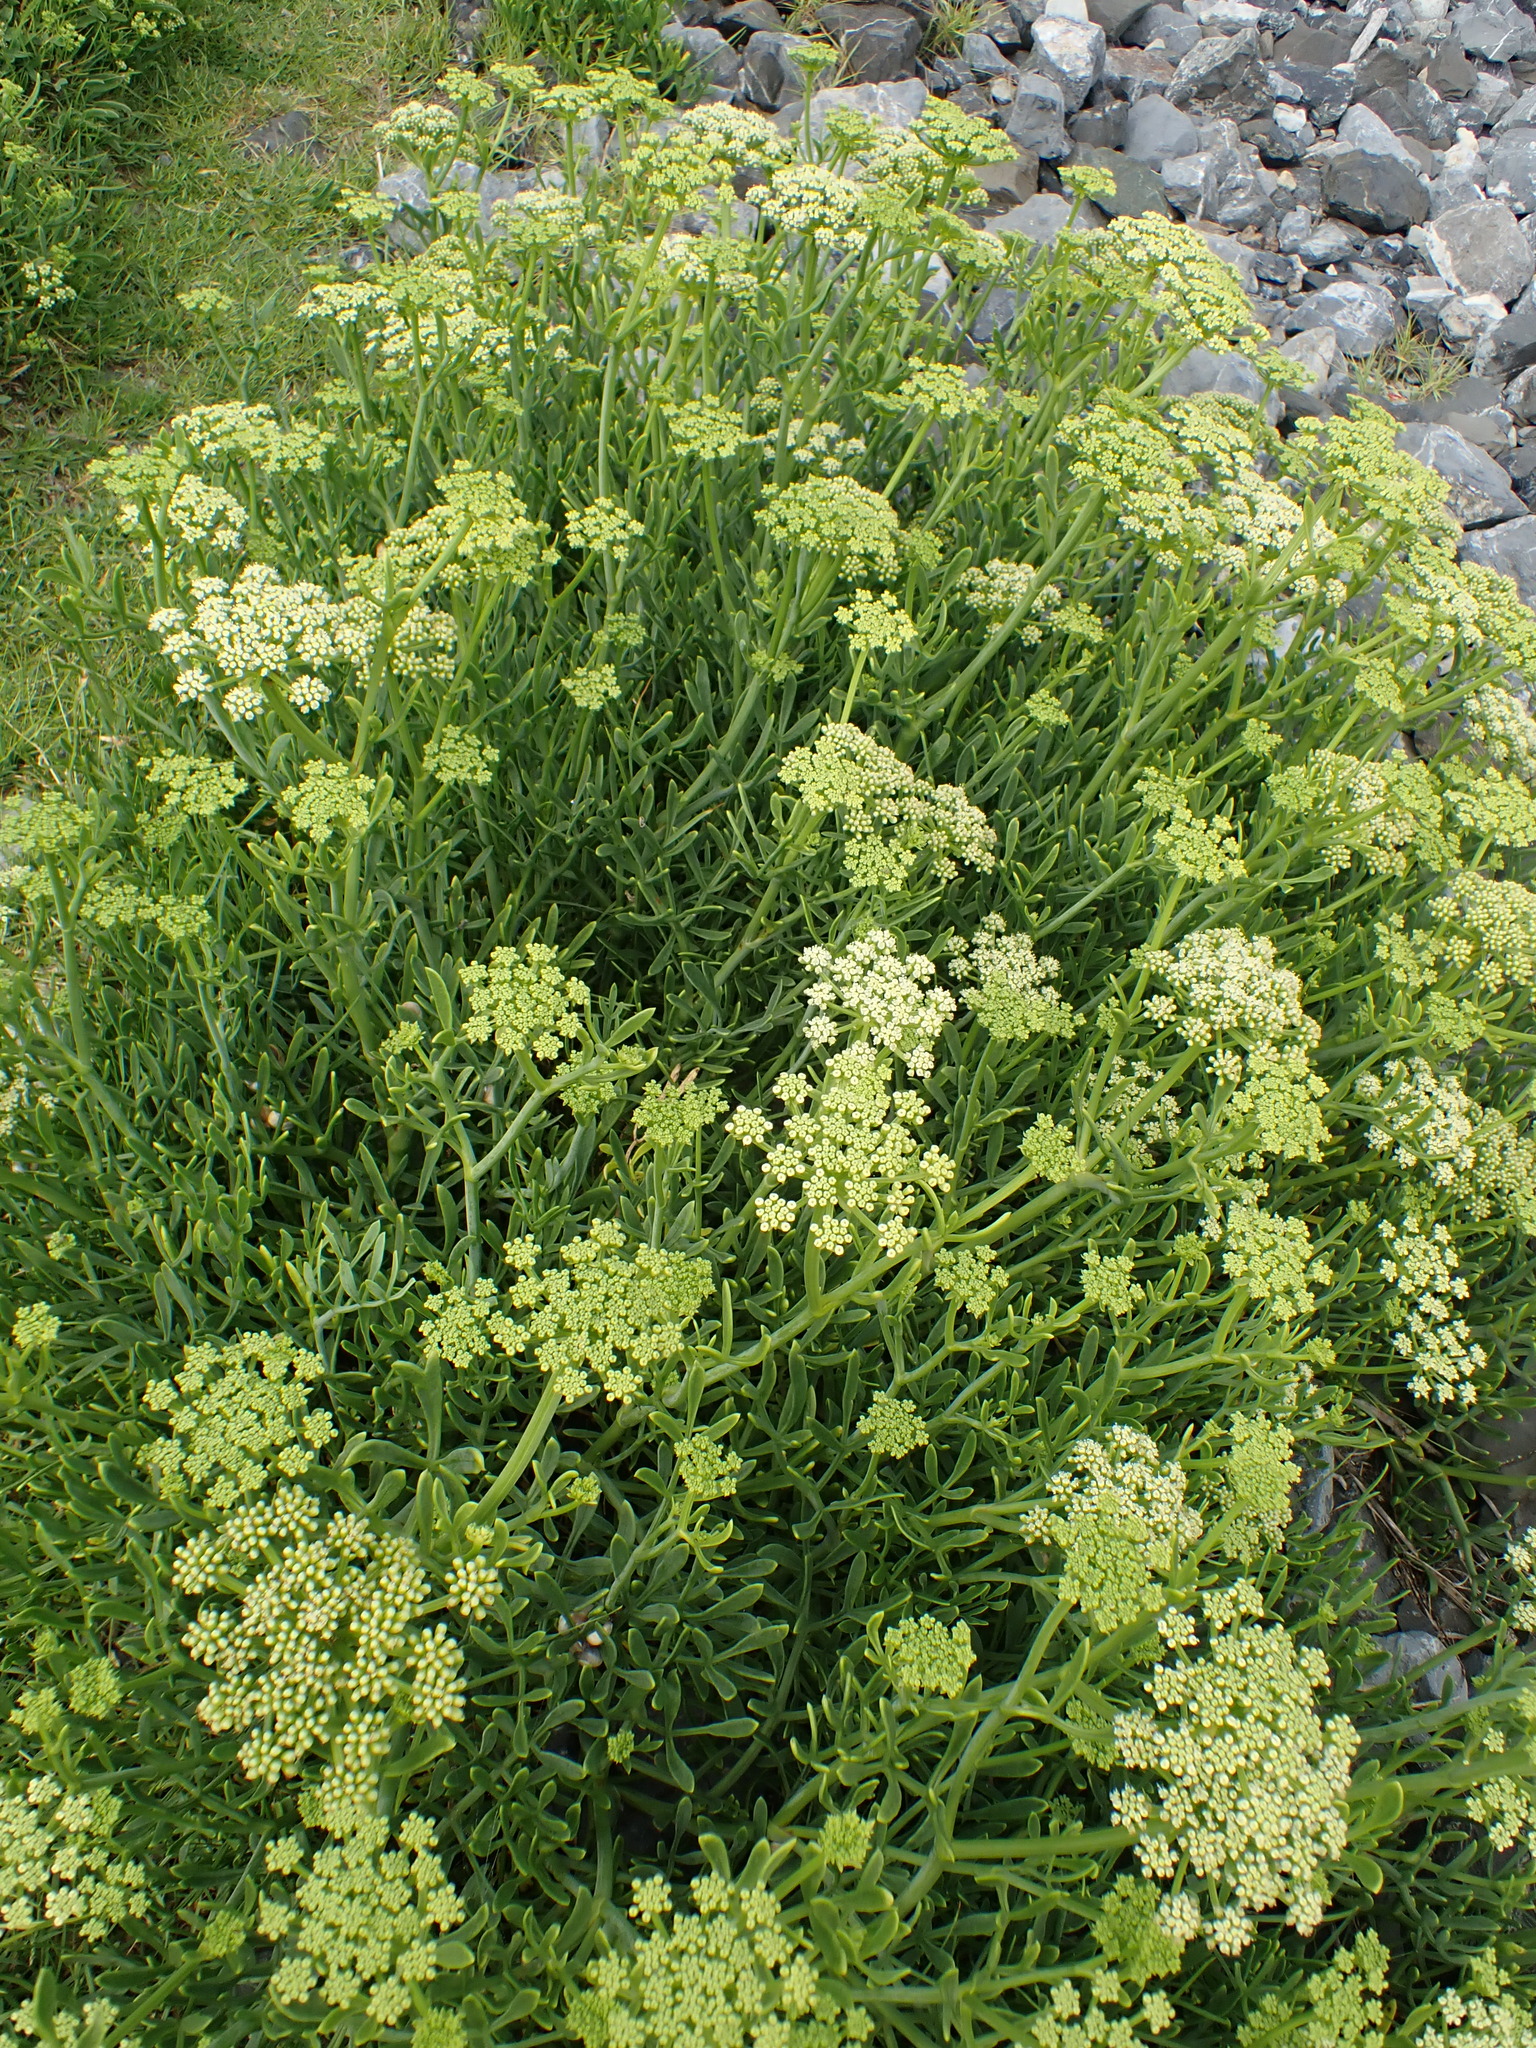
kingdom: Plantae
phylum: Tracheophyta
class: Magnoliopsida
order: Apiales
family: Apiaceae
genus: Crithmum
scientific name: Crithmum maritimum
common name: Rock samphire
